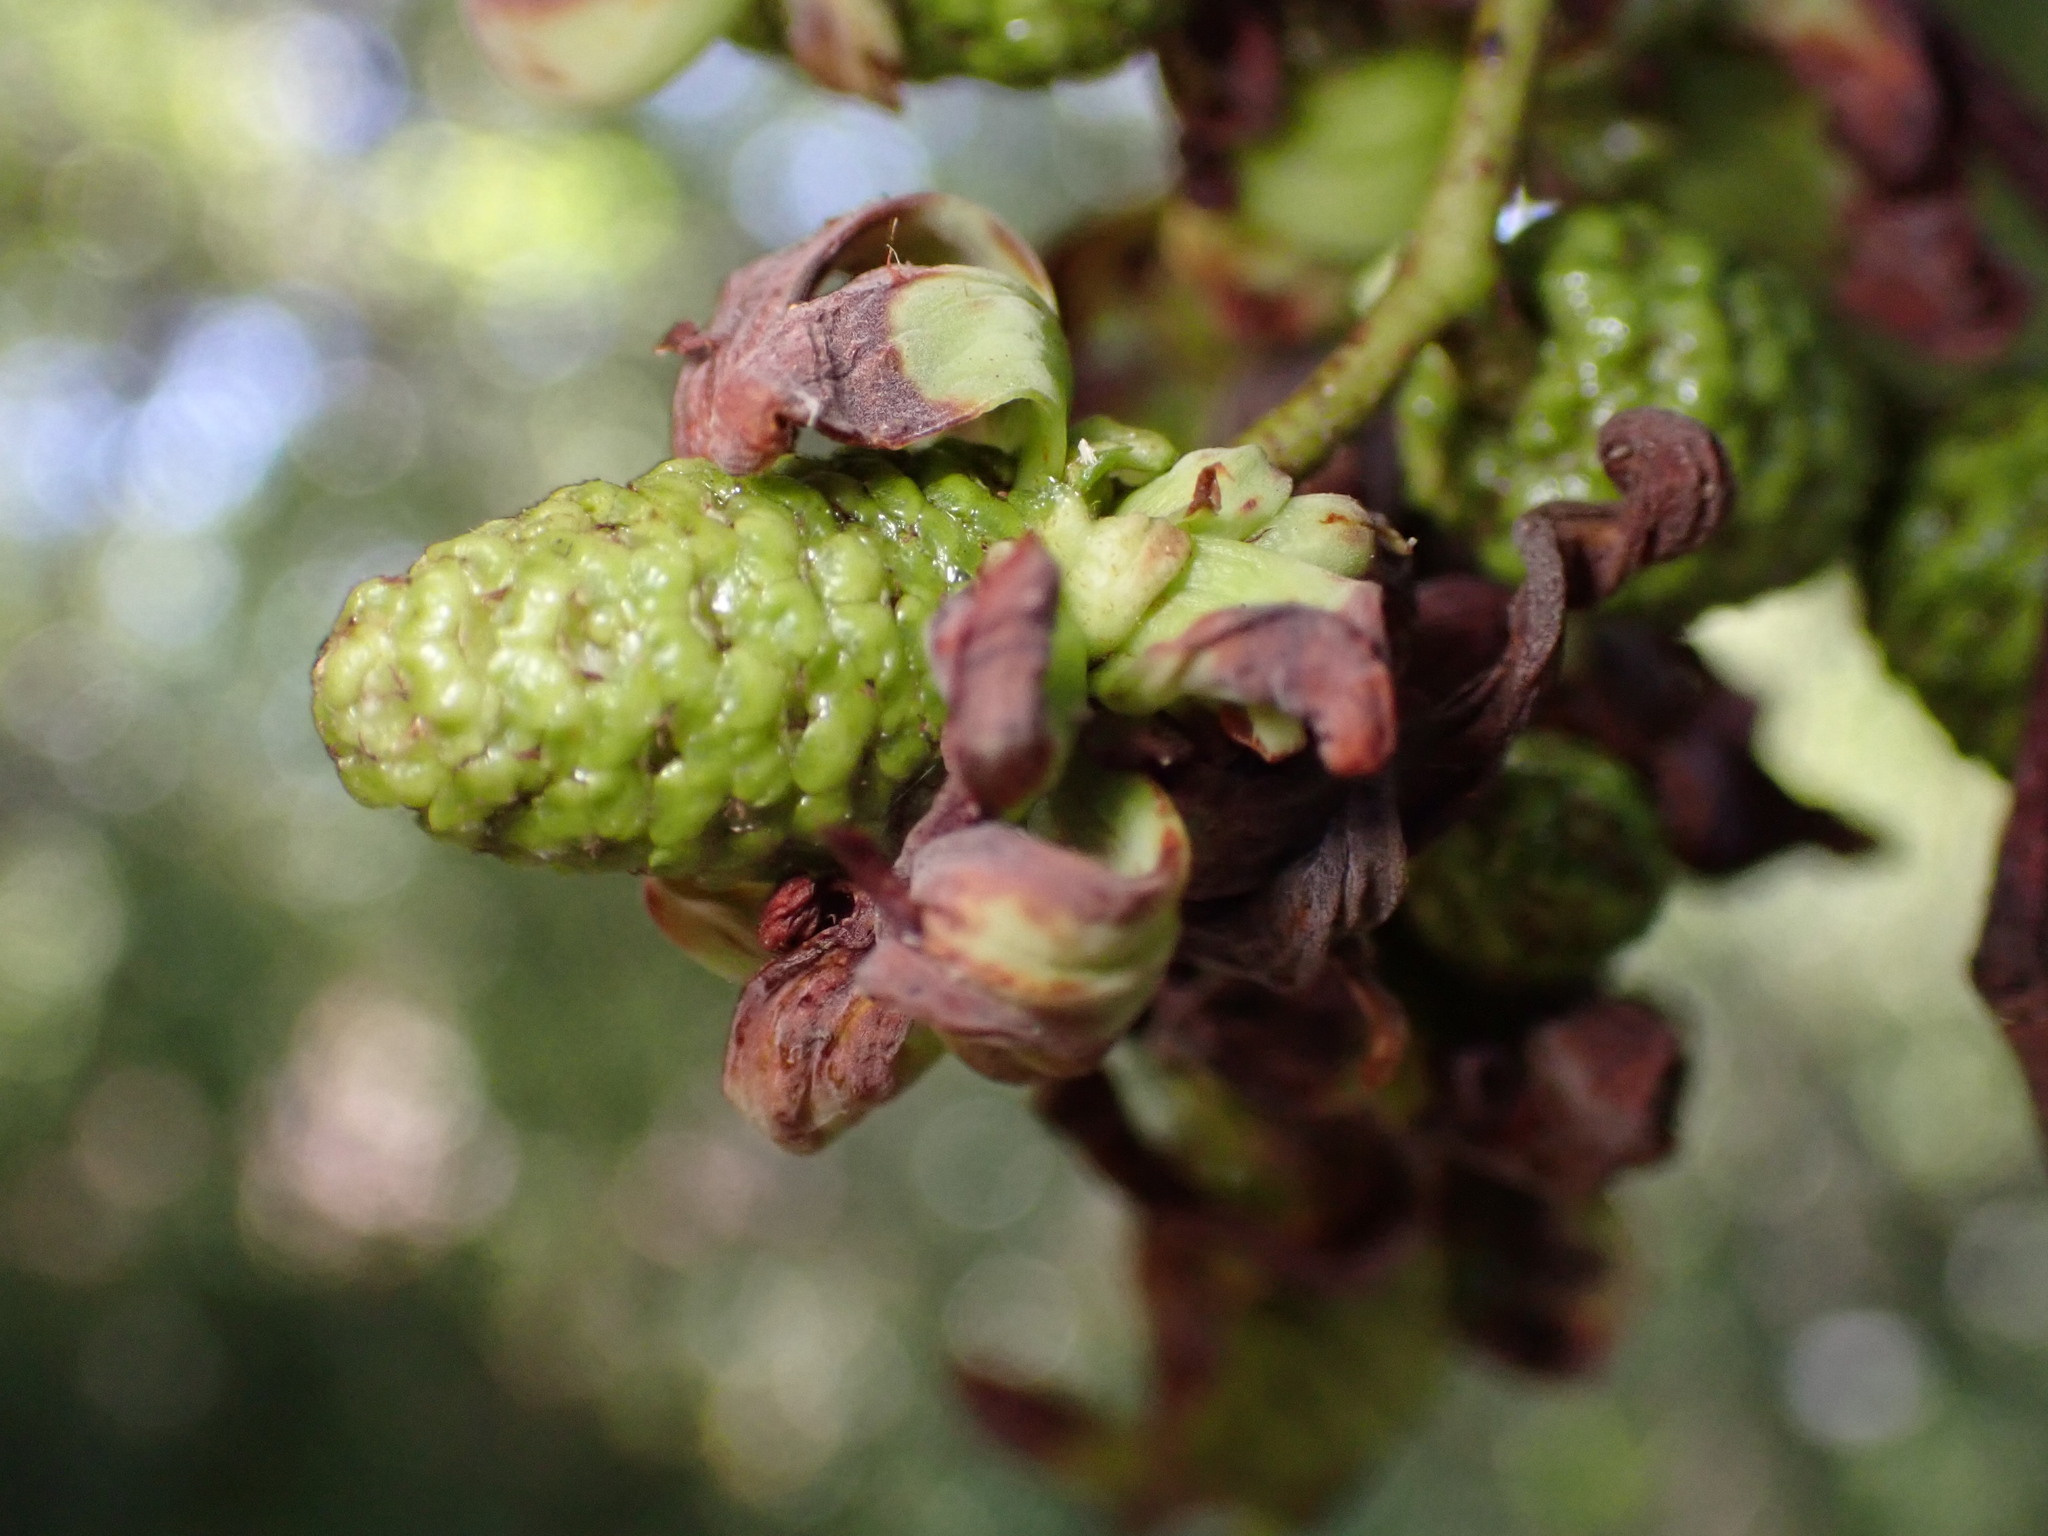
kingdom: Fungi
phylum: Ascomycota
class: Taphrinomycetes
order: Taphrinales
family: Taphrinaceae
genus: Taphrina
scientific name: Taphrina occidentalis
